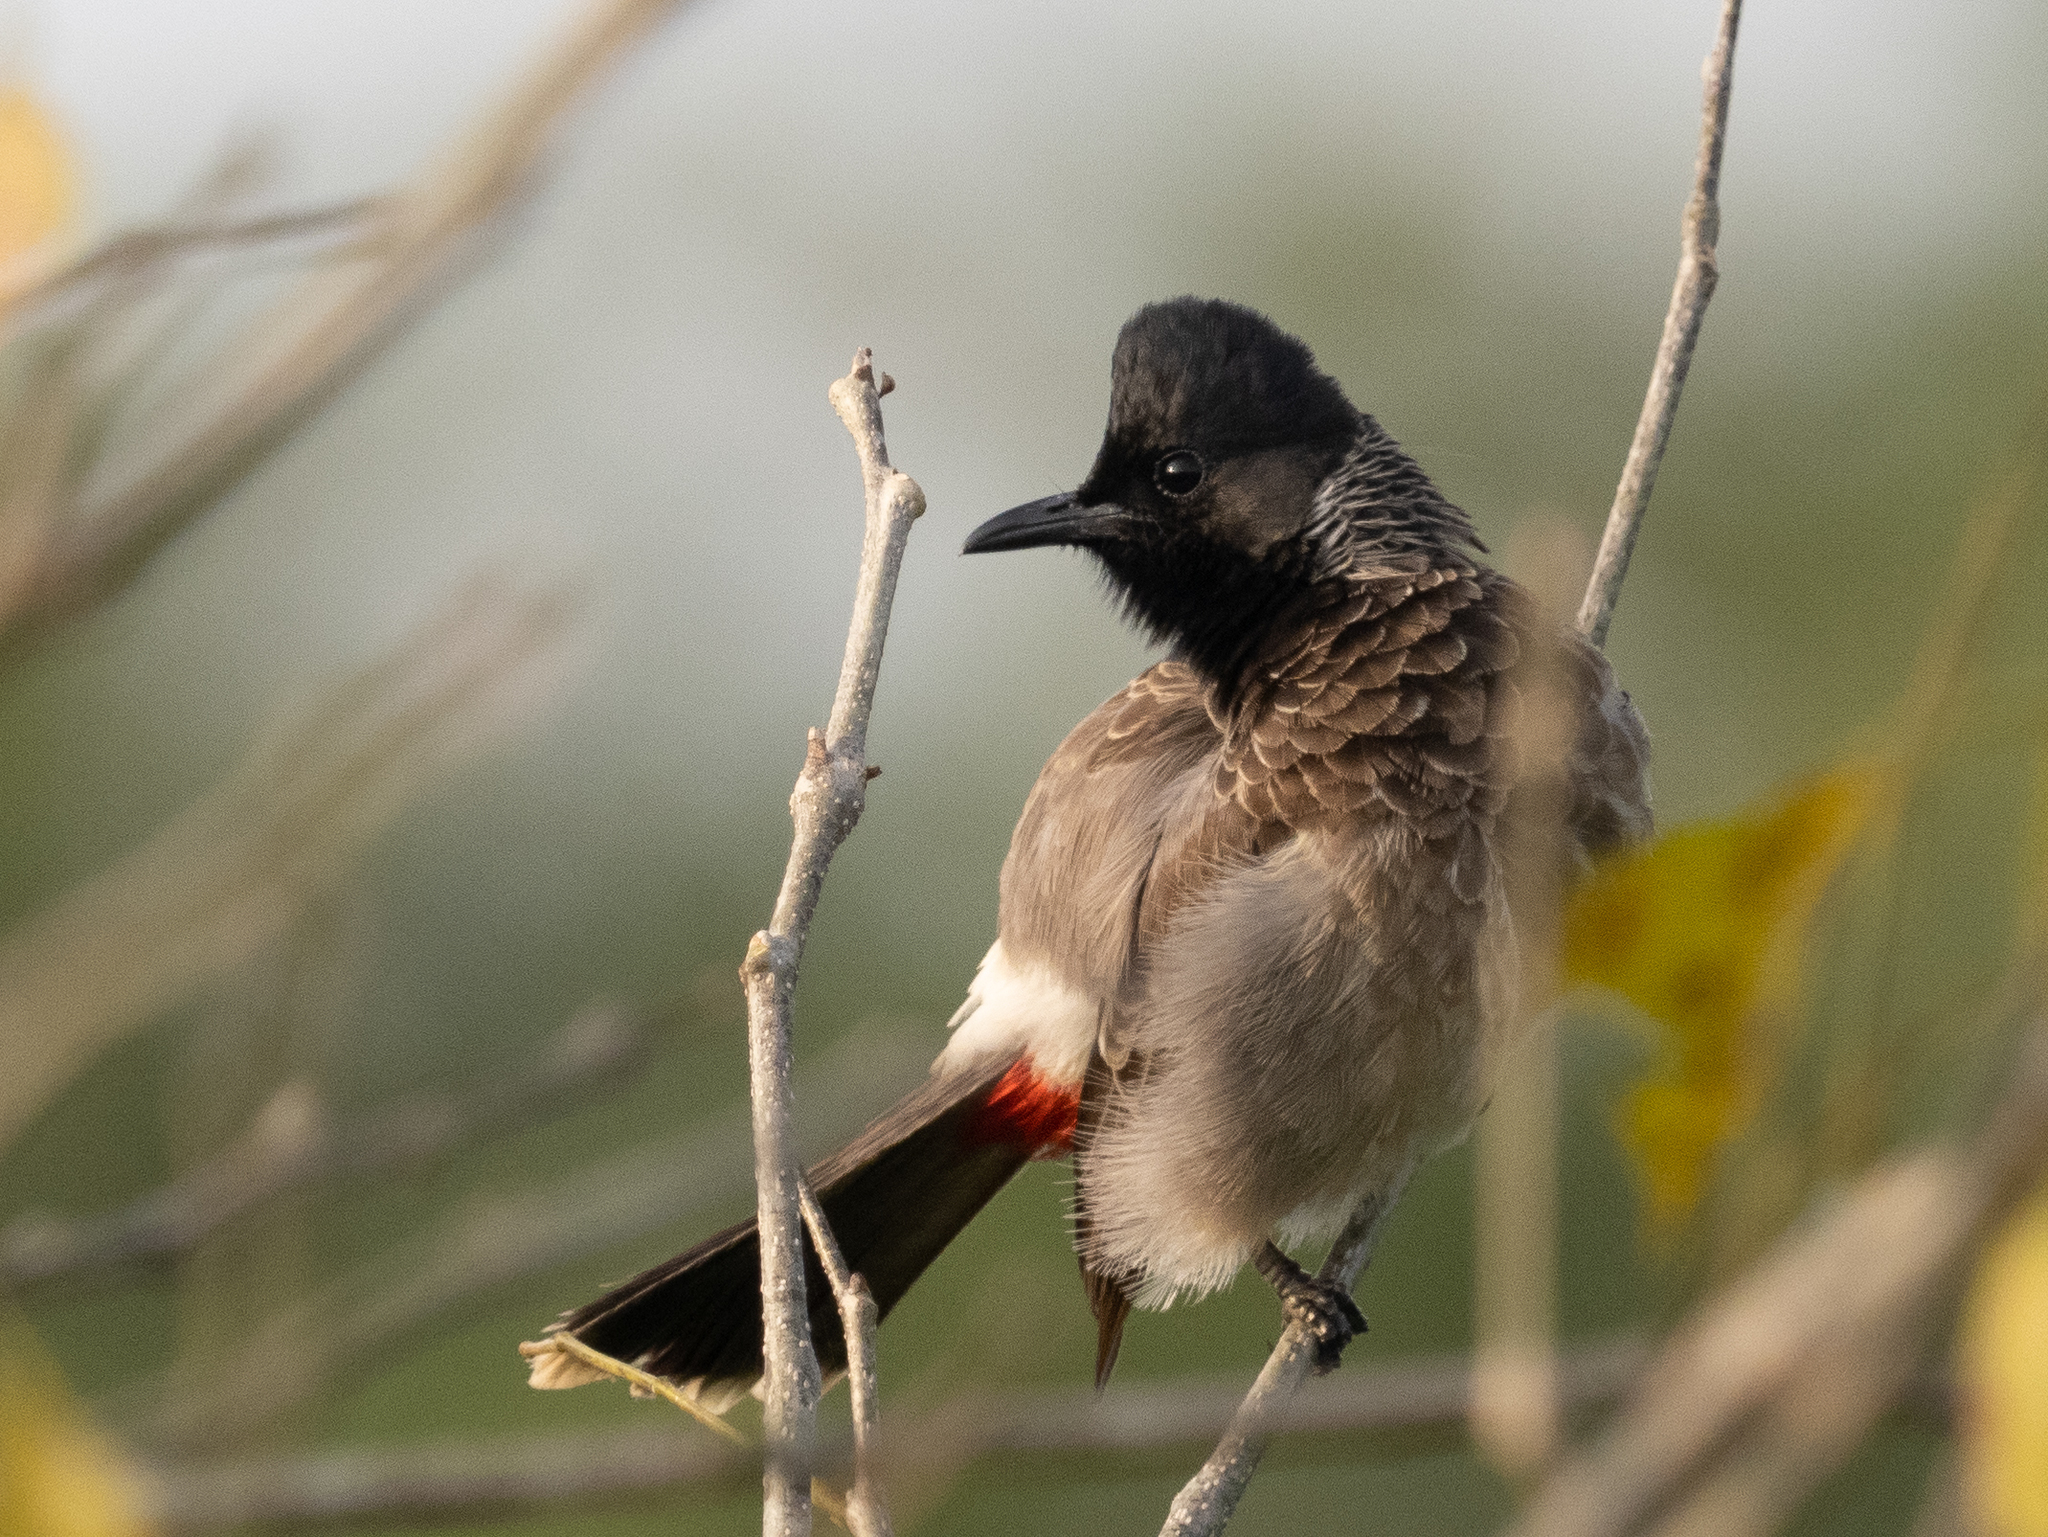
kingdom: Animalia
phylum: Chordata
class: Aves
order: Passeriformes
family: Pycnonotidae
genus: Pycnonotus
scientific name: Pycnonotus cafer
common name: Red-vented bulbul
